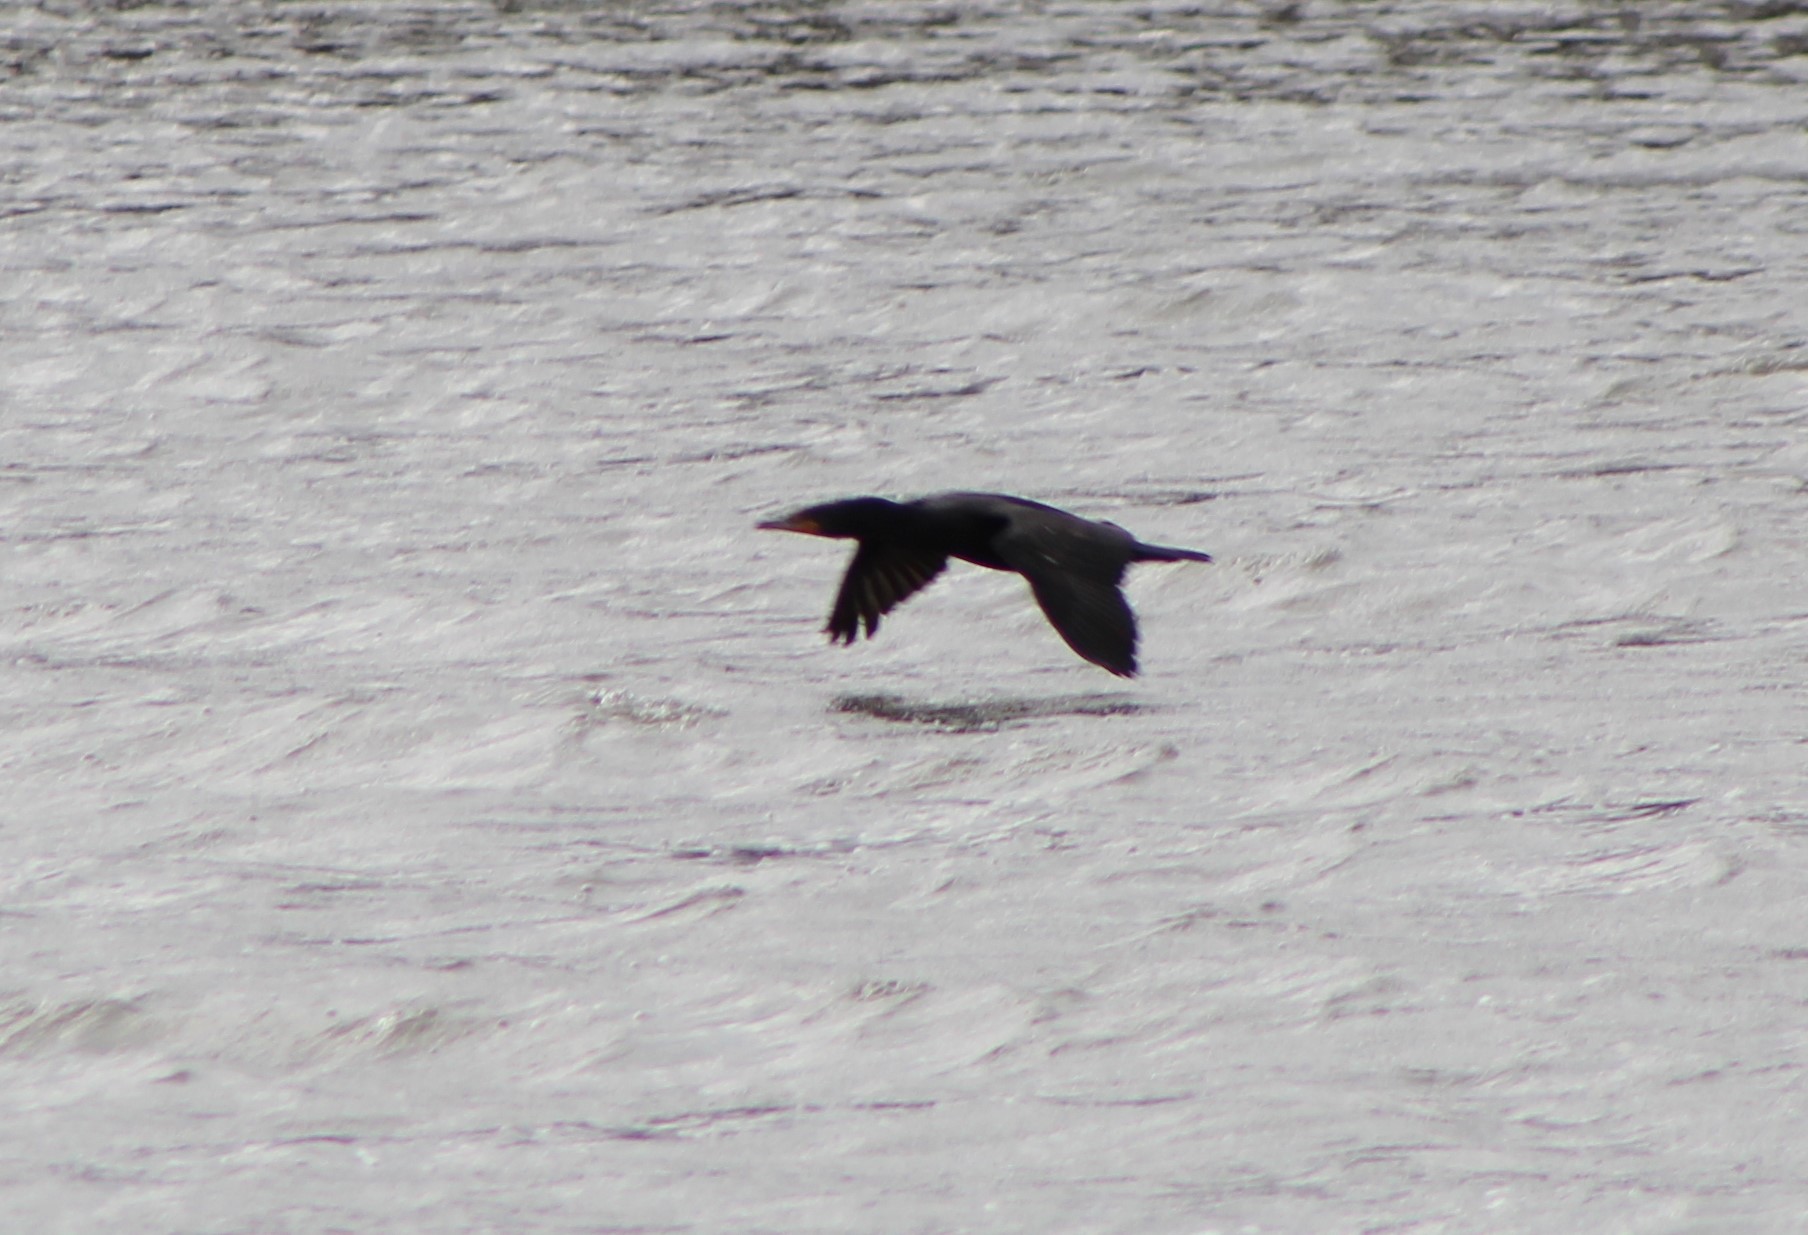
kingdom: Animalia
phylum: Chordata
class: Aves
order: Suliformes
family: Phalacrocoracidae
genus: Phalacrocorax
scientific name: Phalacrocorax auritus
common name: Double-crested cormorant
